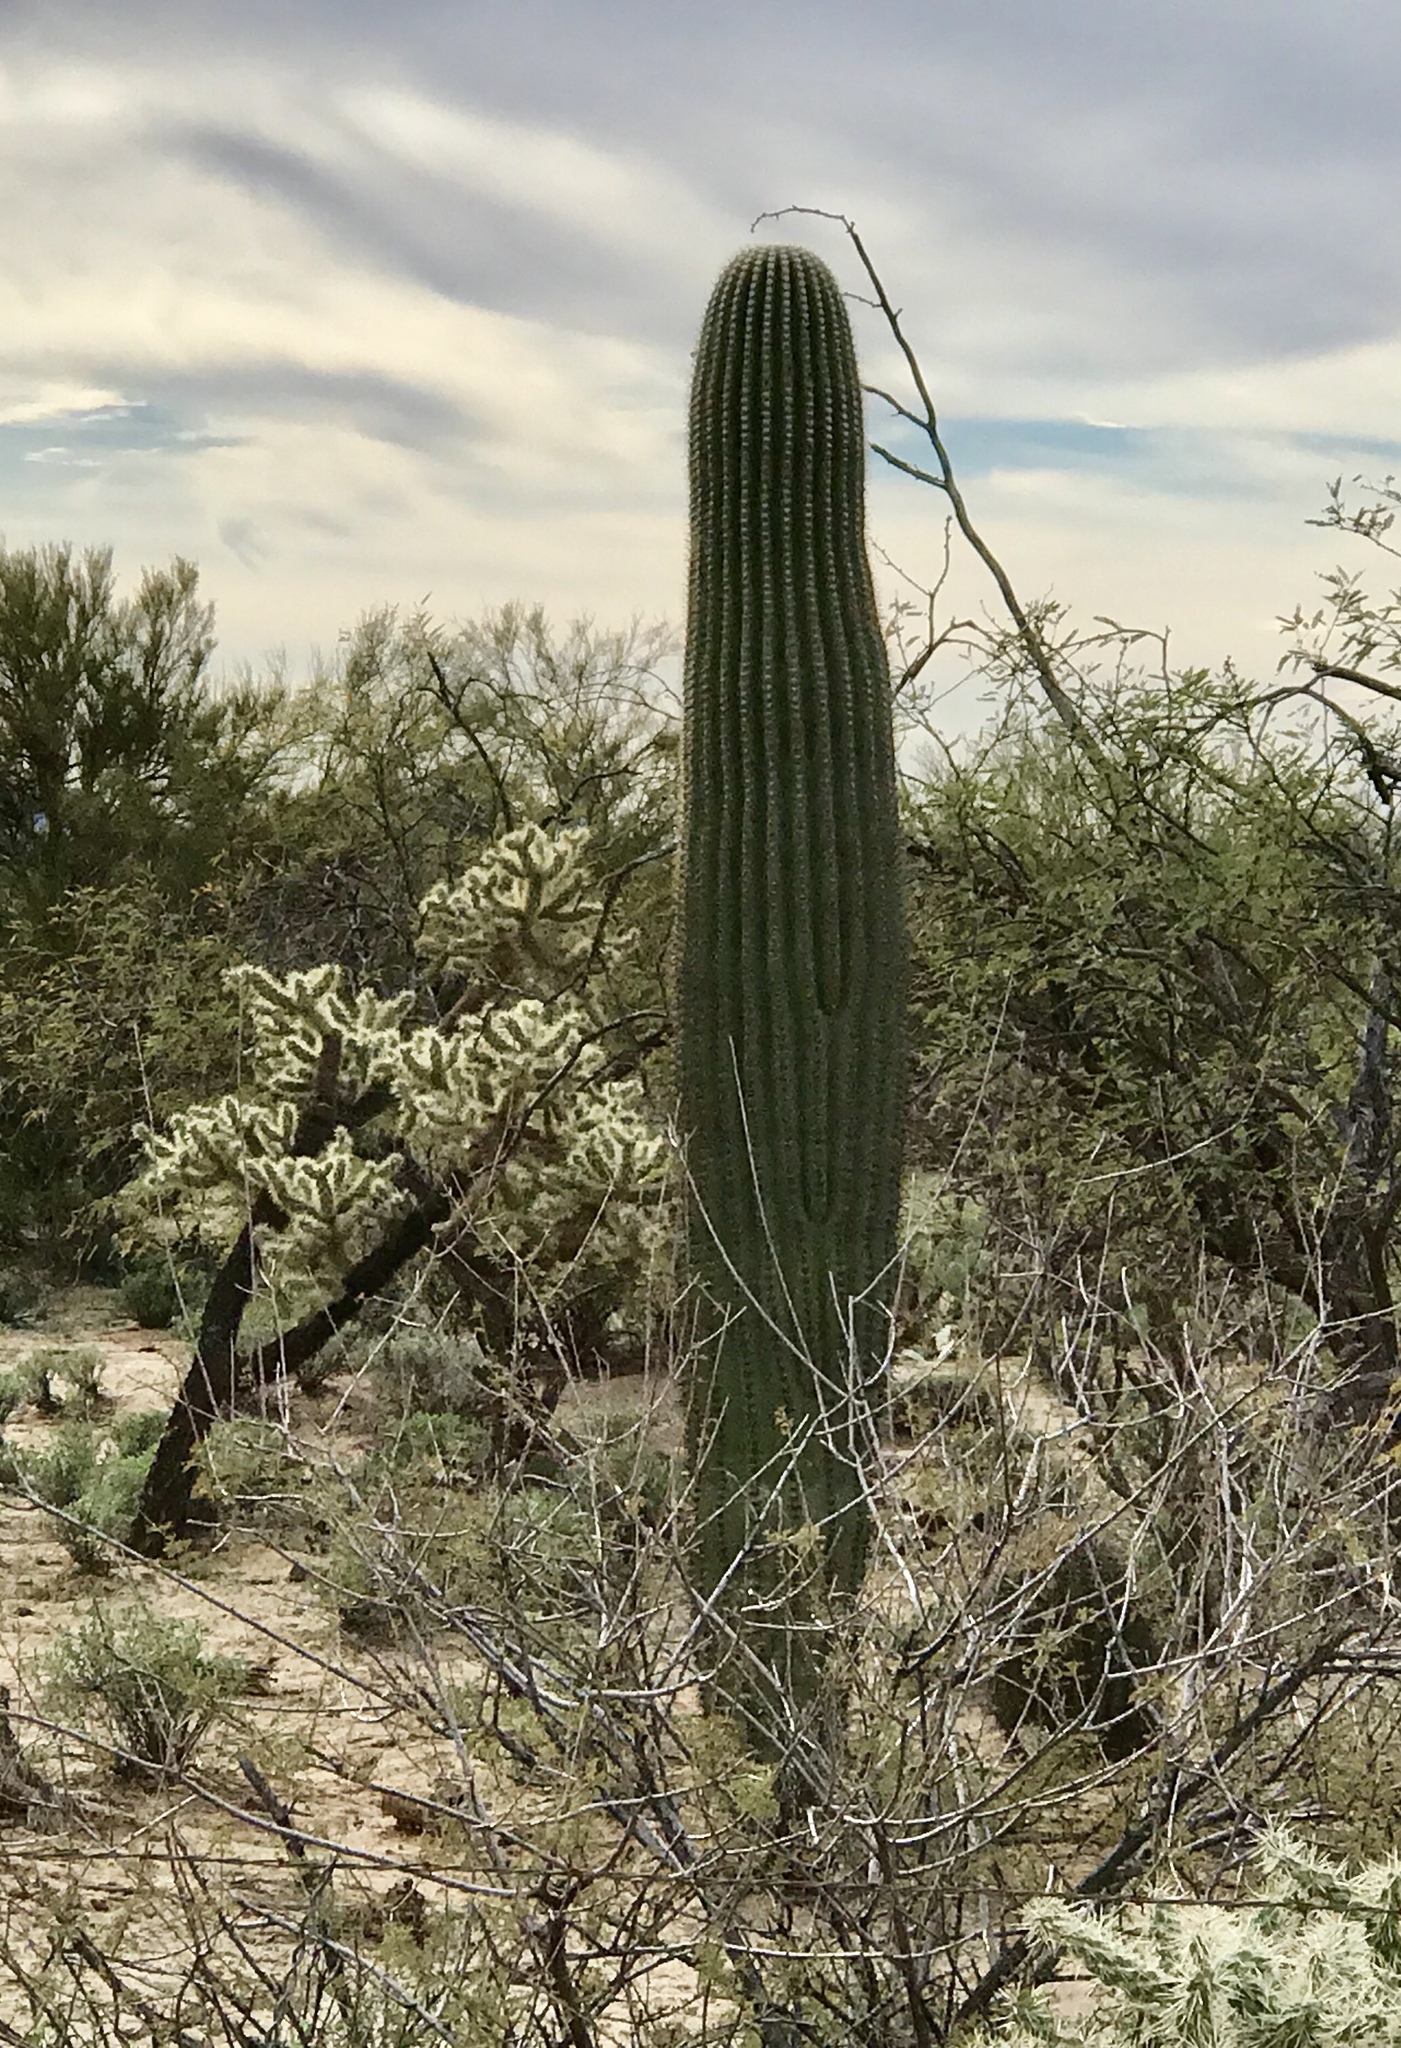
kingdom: Plantae
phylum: Tracheophyta
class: Magnoliopsida
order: Caryophyllales
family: Cactaceae
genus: Carnegiea
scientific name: Carnegiea gigantea
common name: Saguaro
